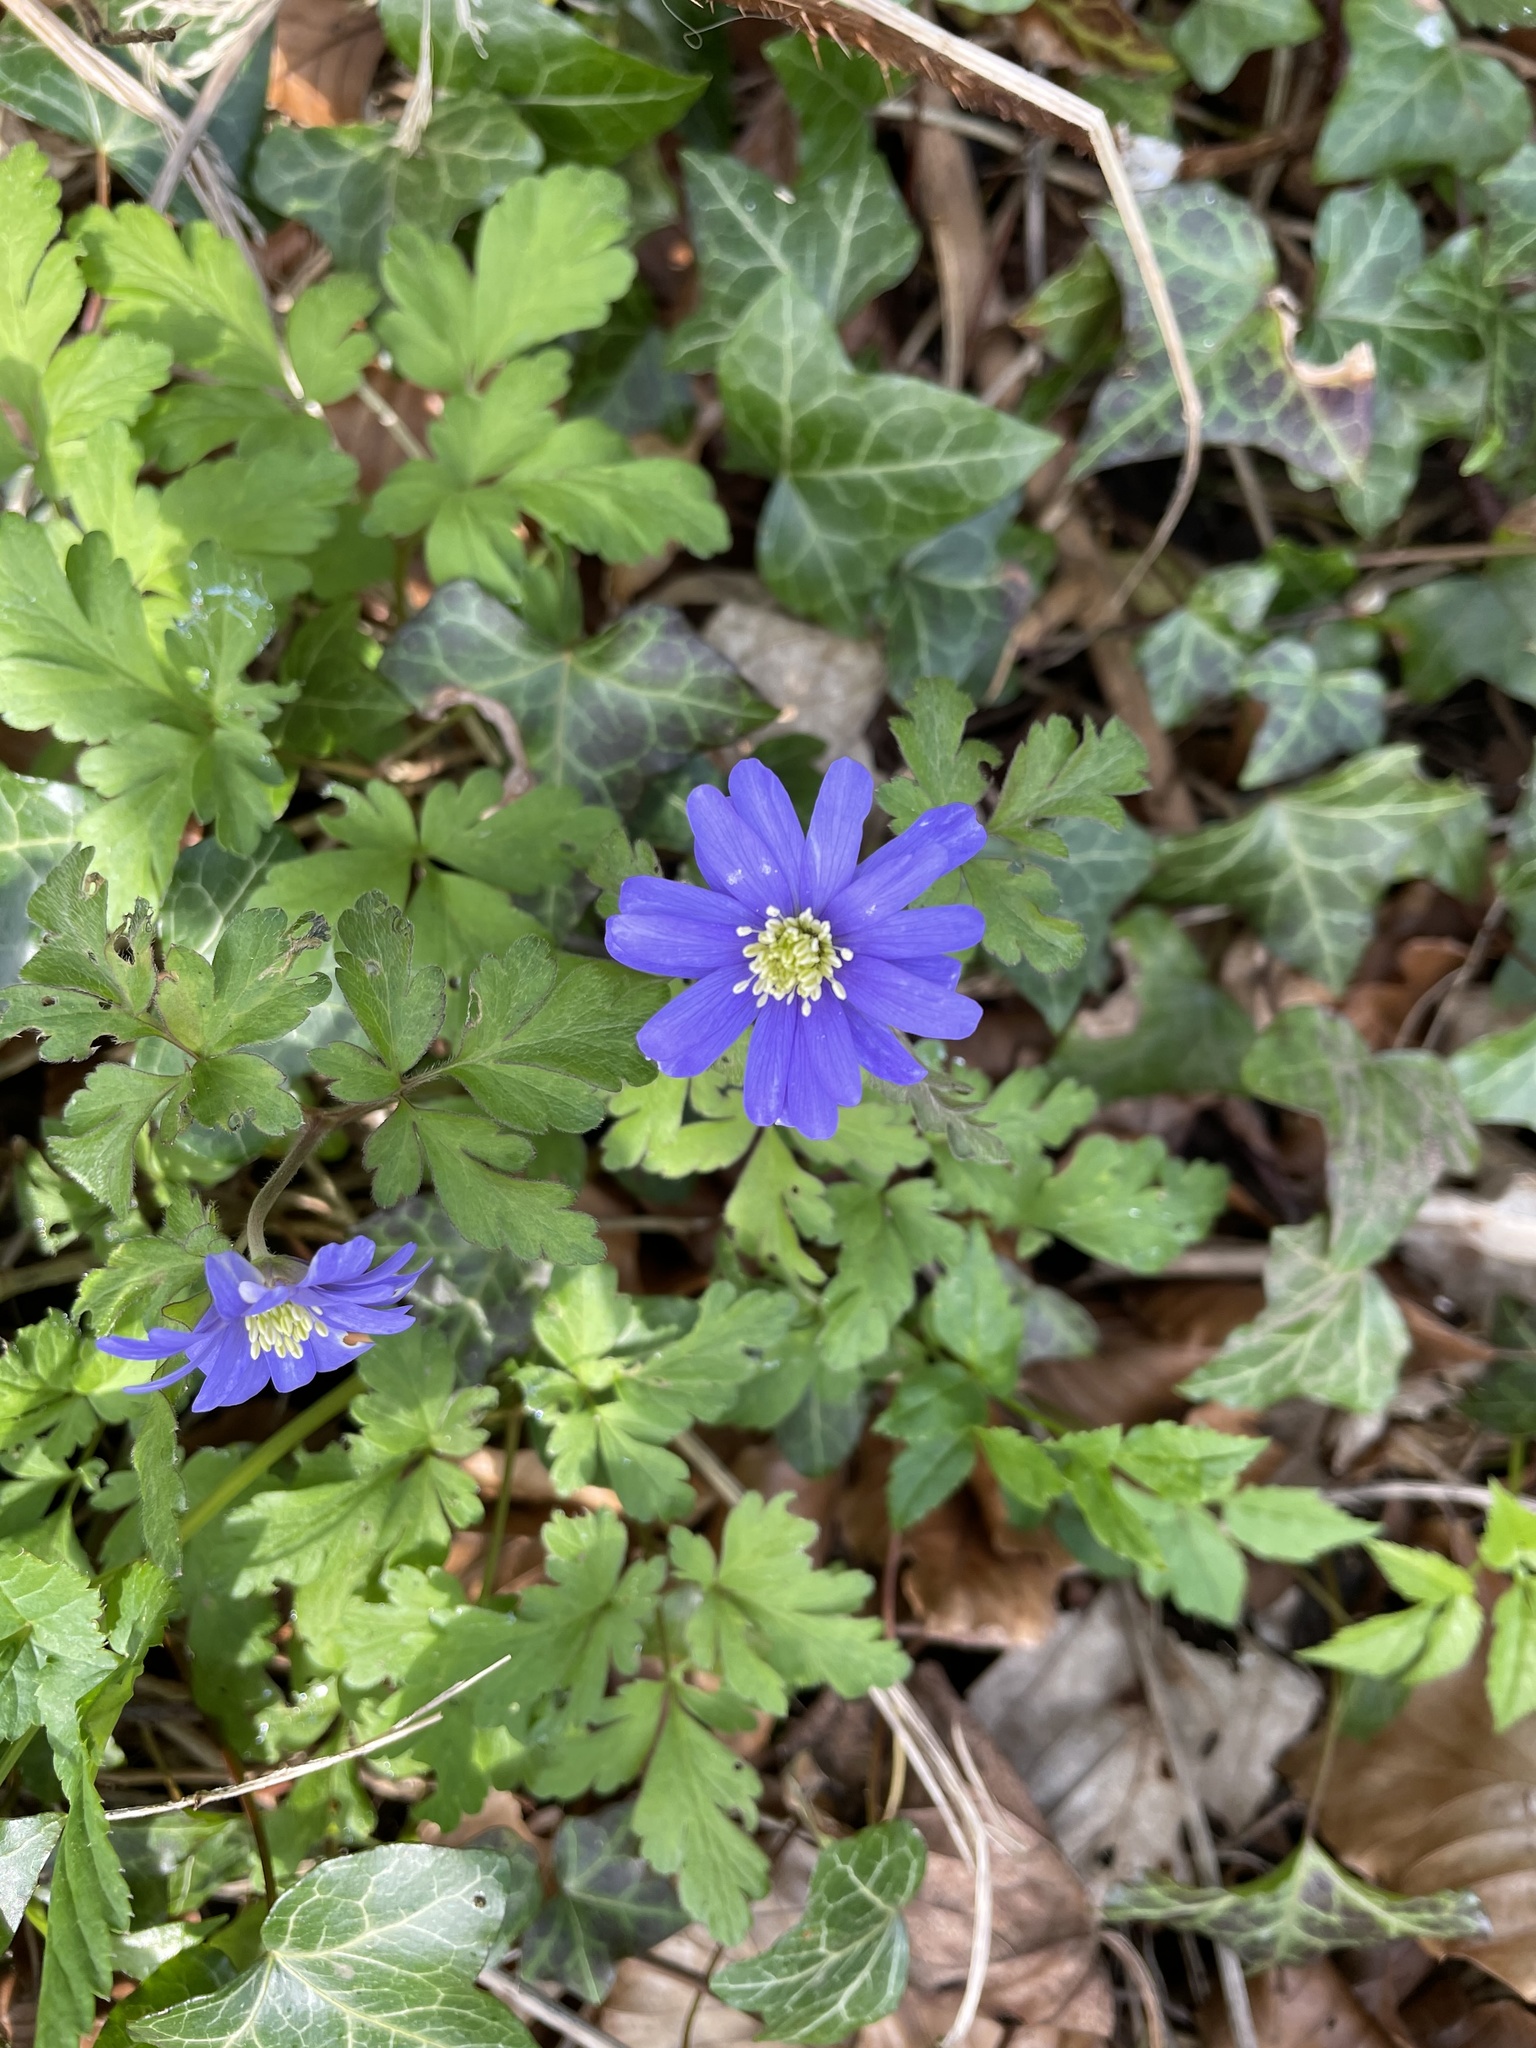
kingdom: Plantae
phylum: Tracheophyta
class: Magnoliopsida
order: Ranunculales
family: Ranunculaceae
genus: Anemone
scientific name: Anemone blanda
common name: Balkan anemone
